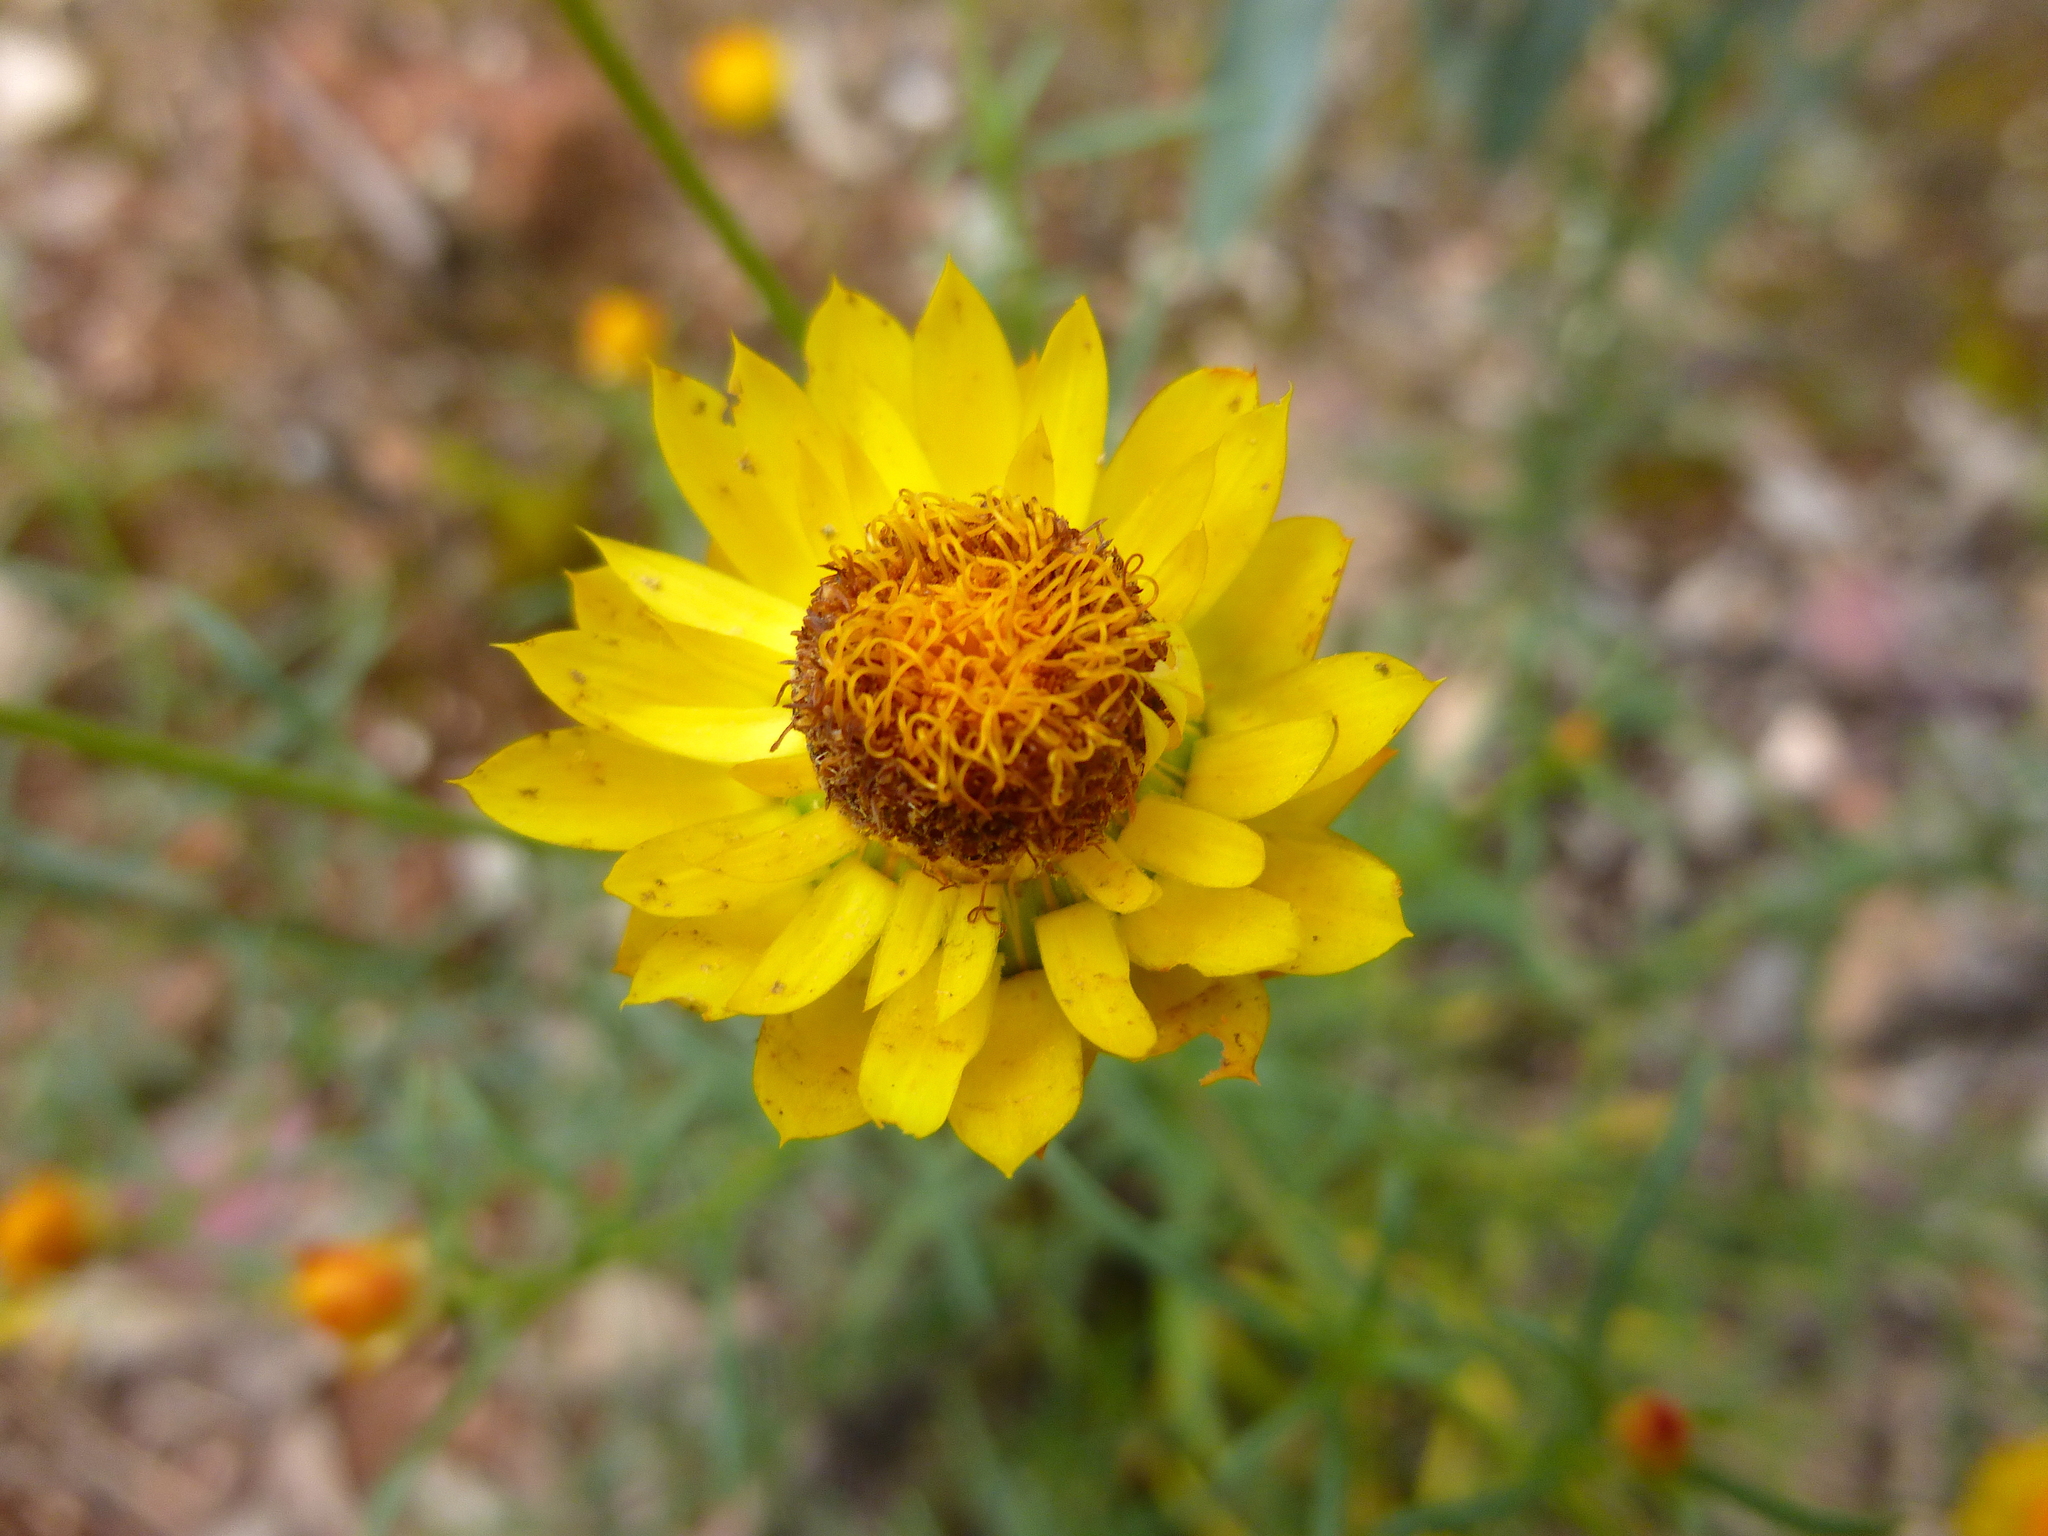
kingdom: Plantae
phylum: Tracheophyta
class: Magnoliopsida
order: Asterales
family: Asteraceae
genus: Xerochrysum
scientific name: Xerochrysum viscosum
